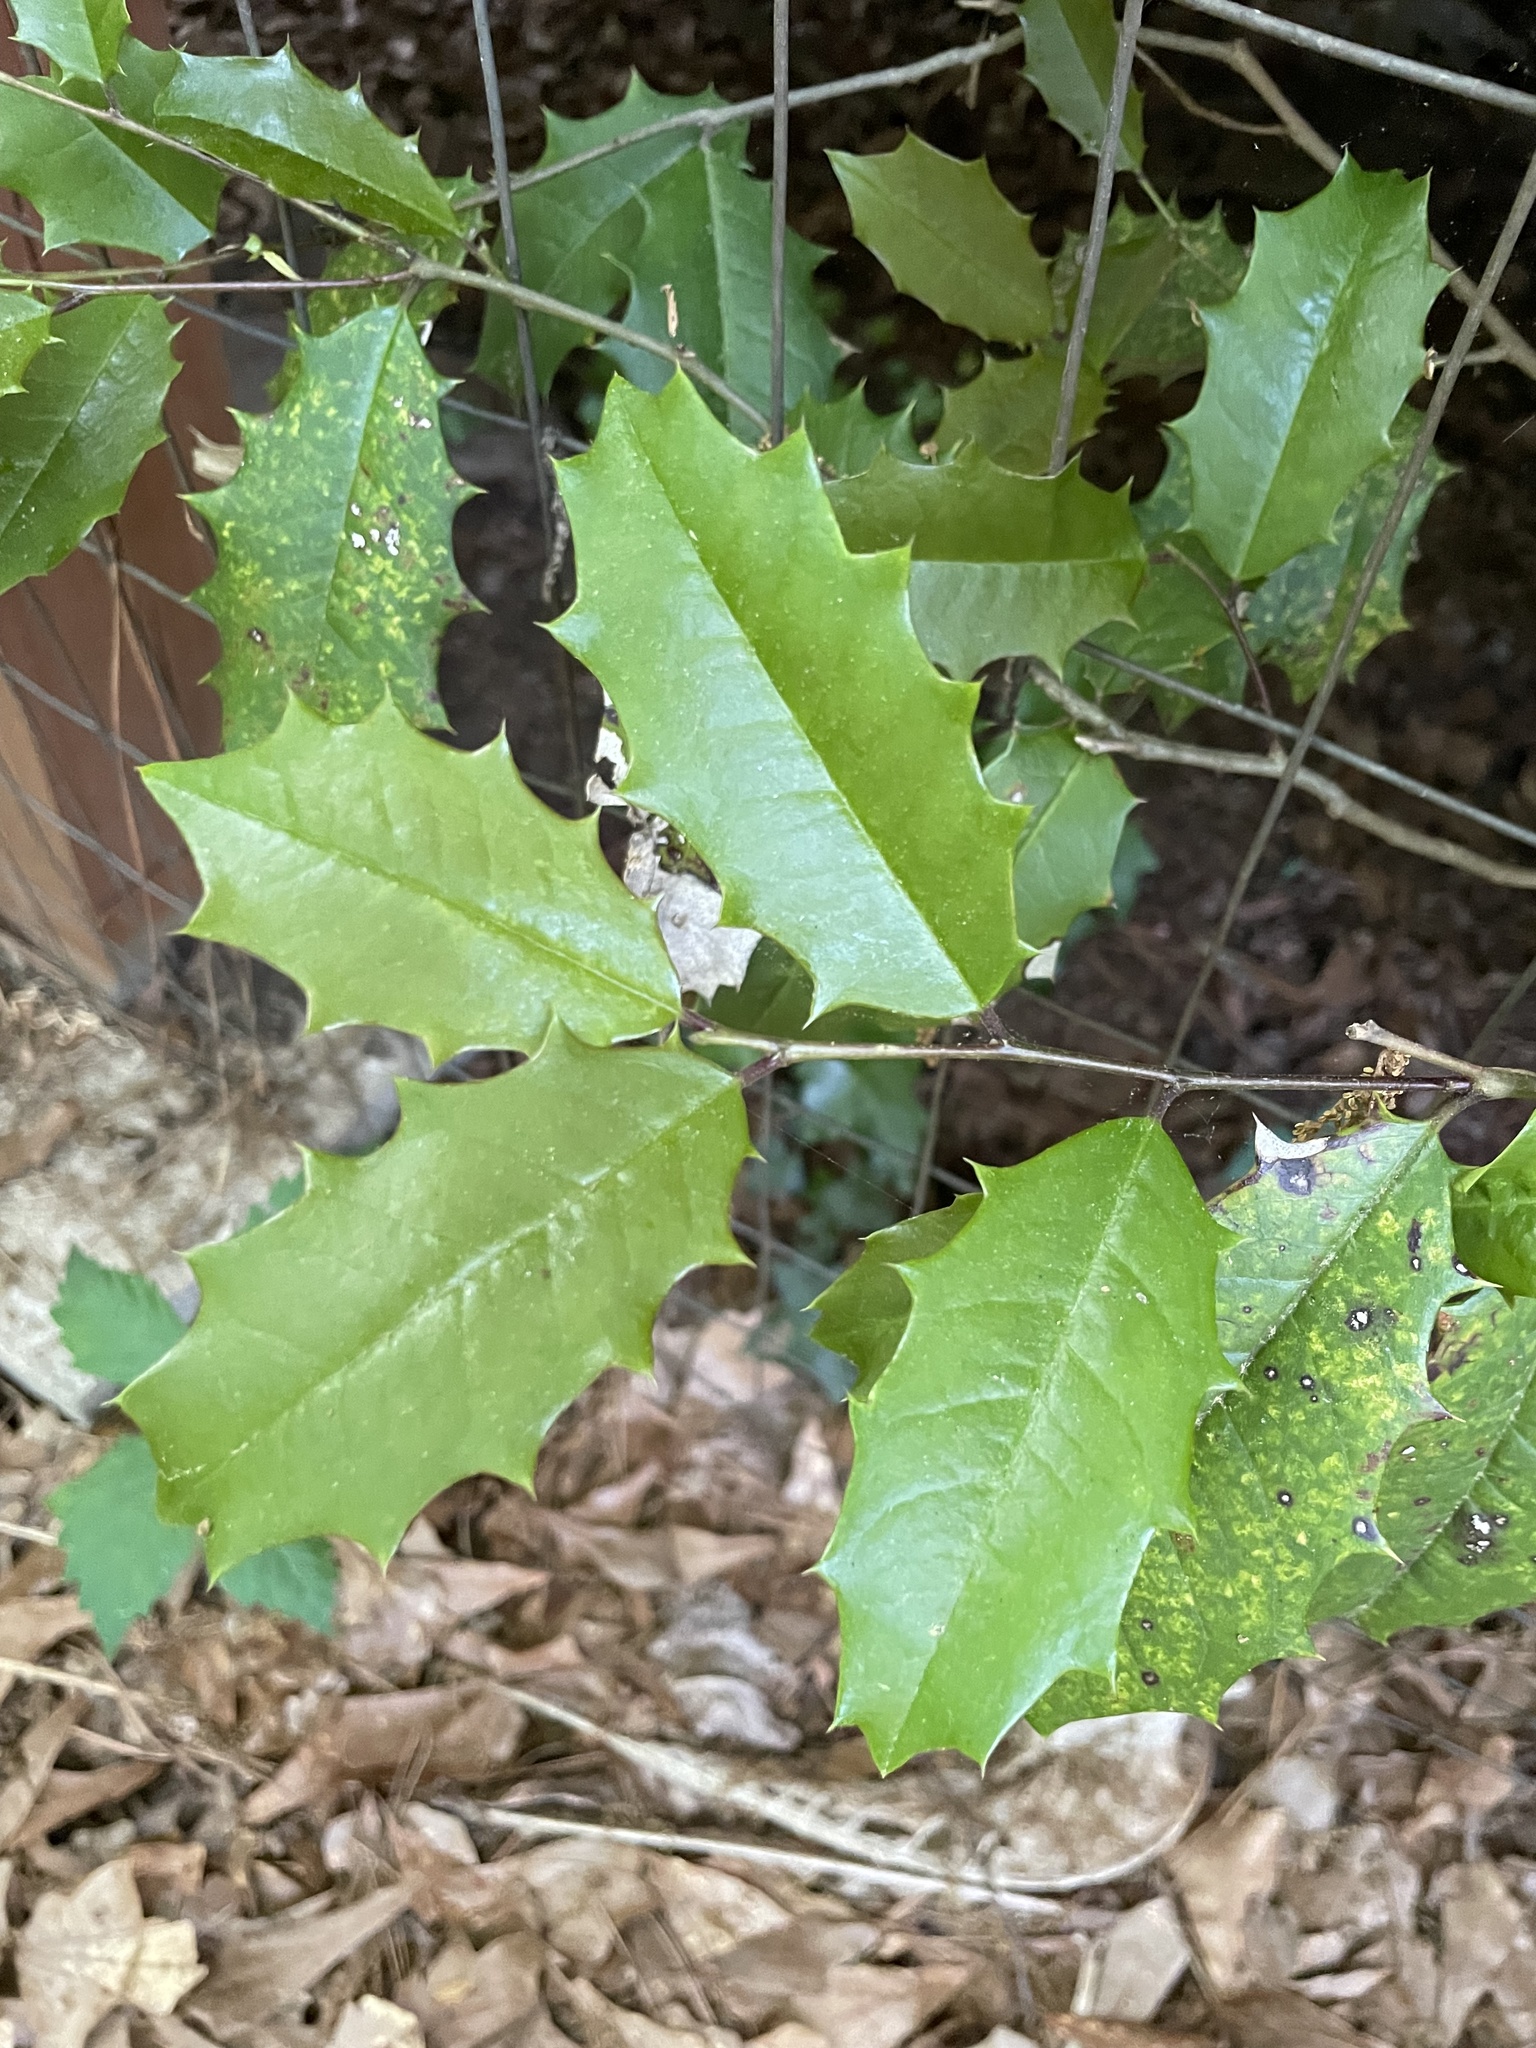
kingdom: Plantae
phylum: Tracheophyta
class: Magnoliopsida
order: Aquifoliales
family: Aquifoliaceae
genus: Ilex
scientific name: Ilex opaca
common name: American holly
